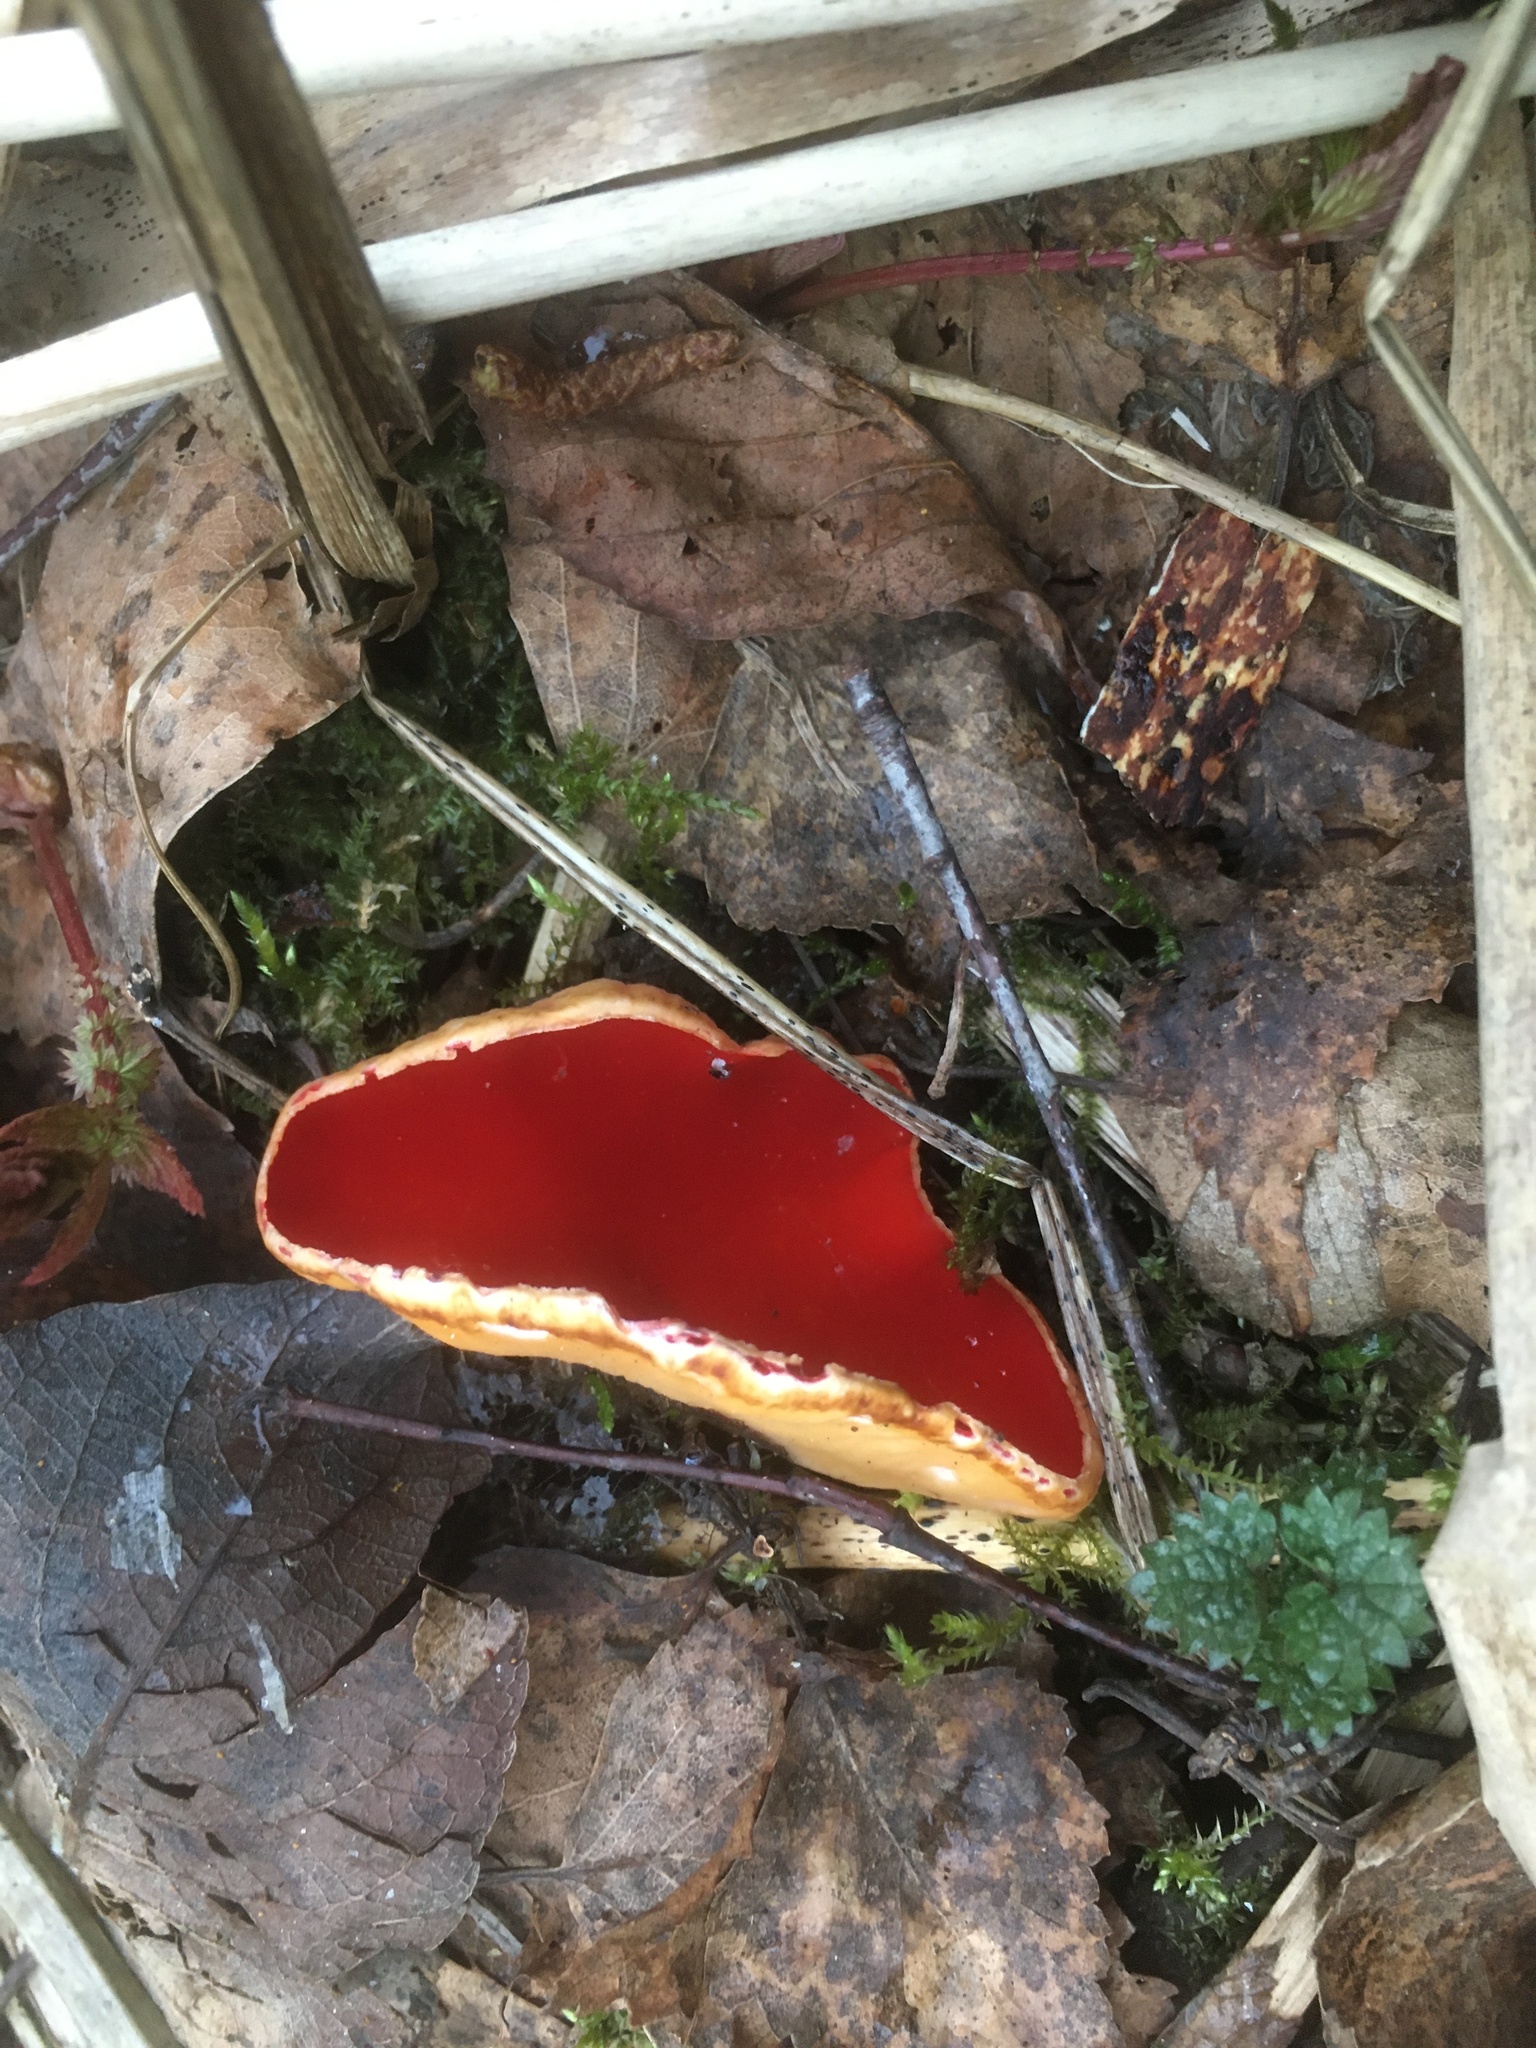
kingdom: Fungi
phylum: Ascomycota
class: Pezizomycetes
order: Pezizales
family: Sarcoscyphaceae
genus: Sarcoscypha
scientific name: Sarcoscypha austriaca
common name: Scarlet elfcup
